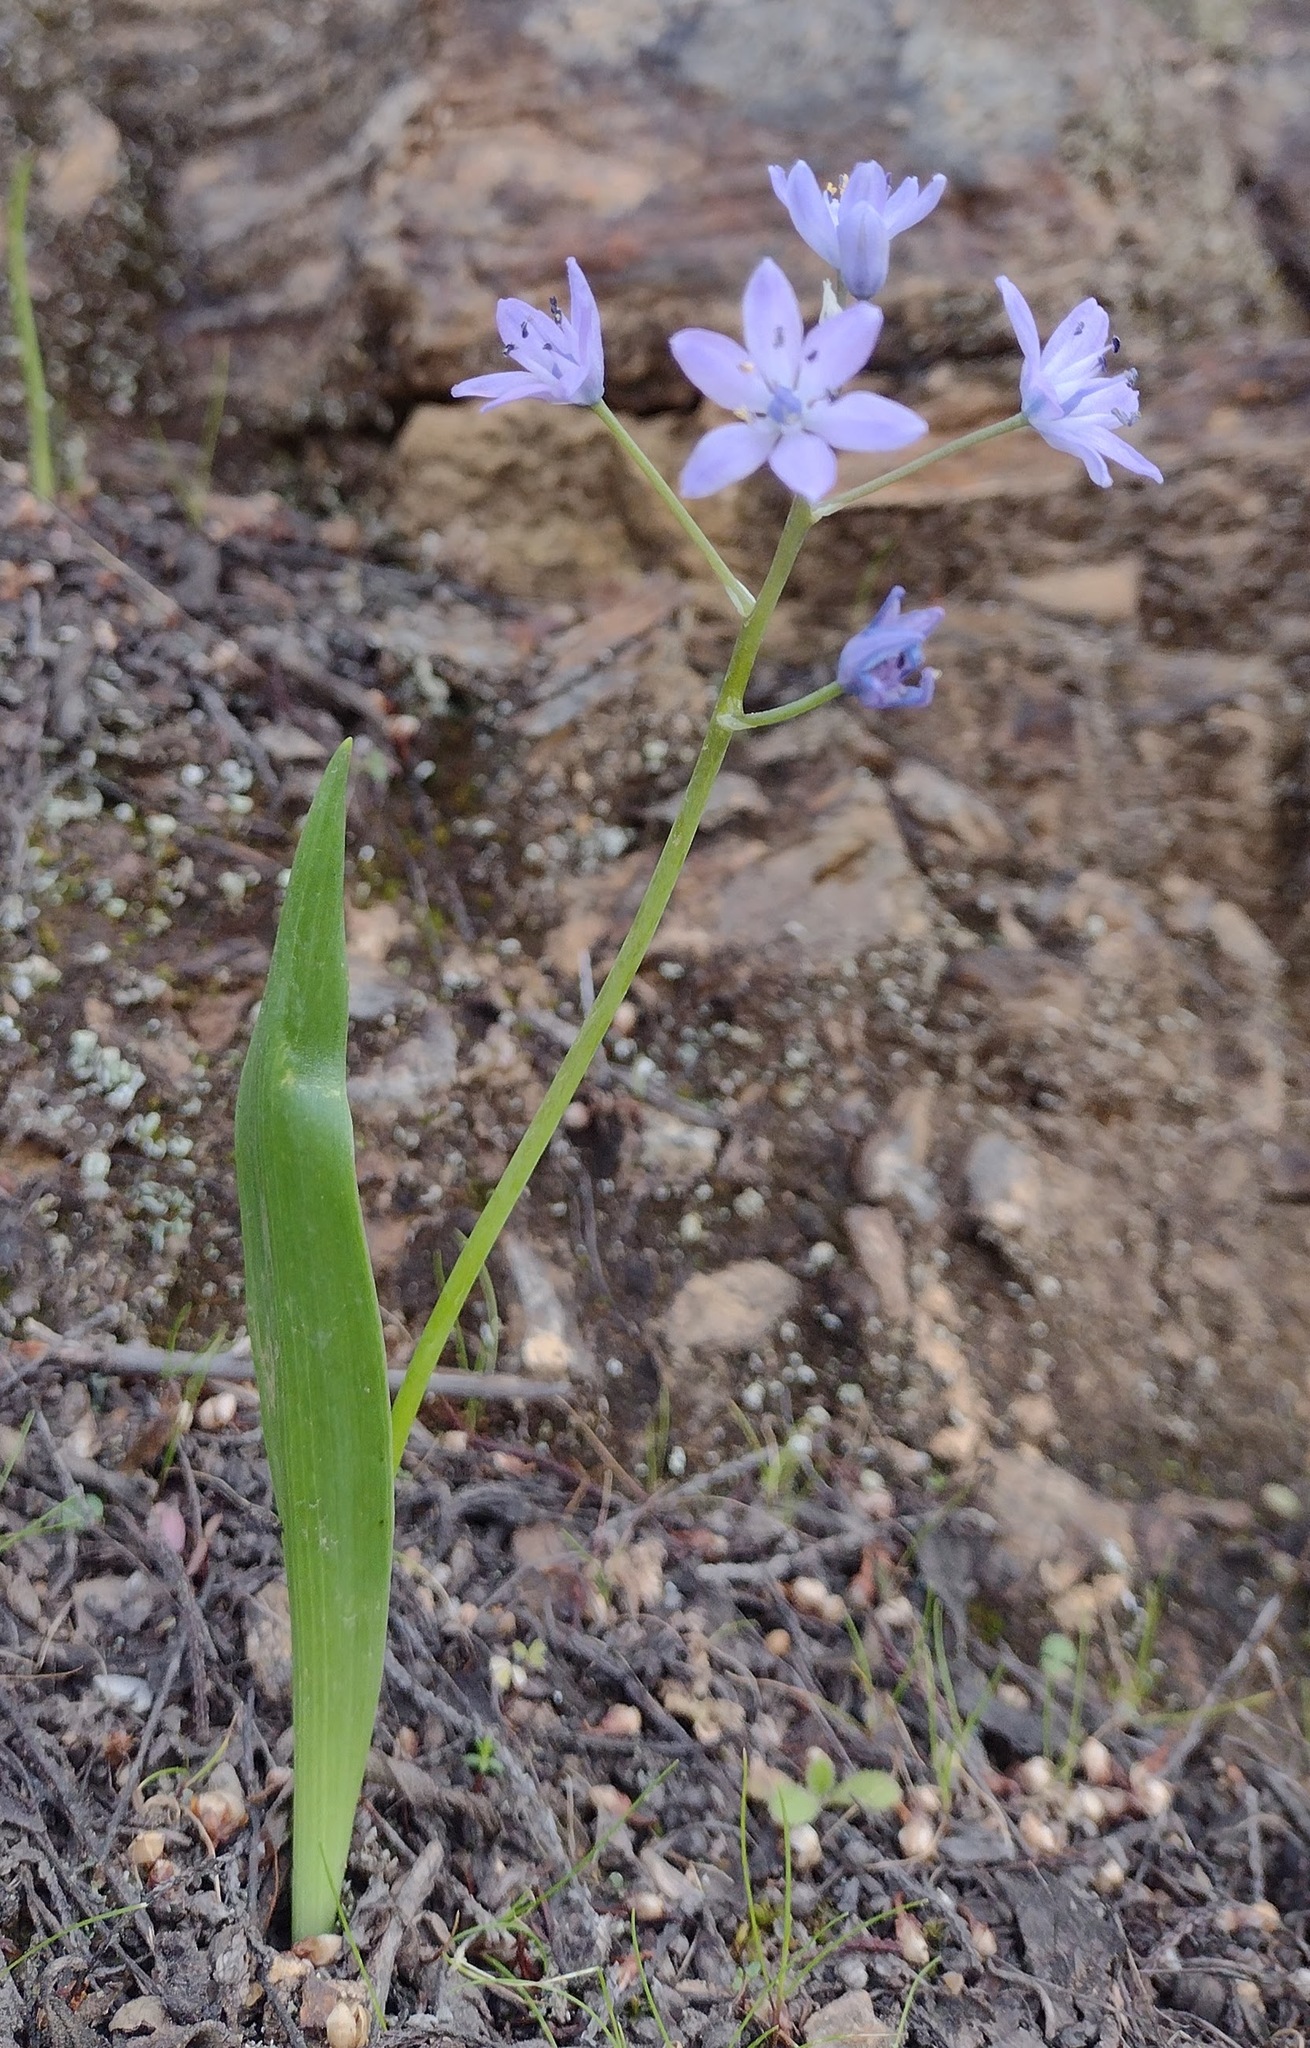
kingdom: Plantae
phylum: Tracheophyta
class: Liliopsida
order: Asparagales
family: Asparagaceae
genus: Scilla
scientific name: Scilla monophyllos
